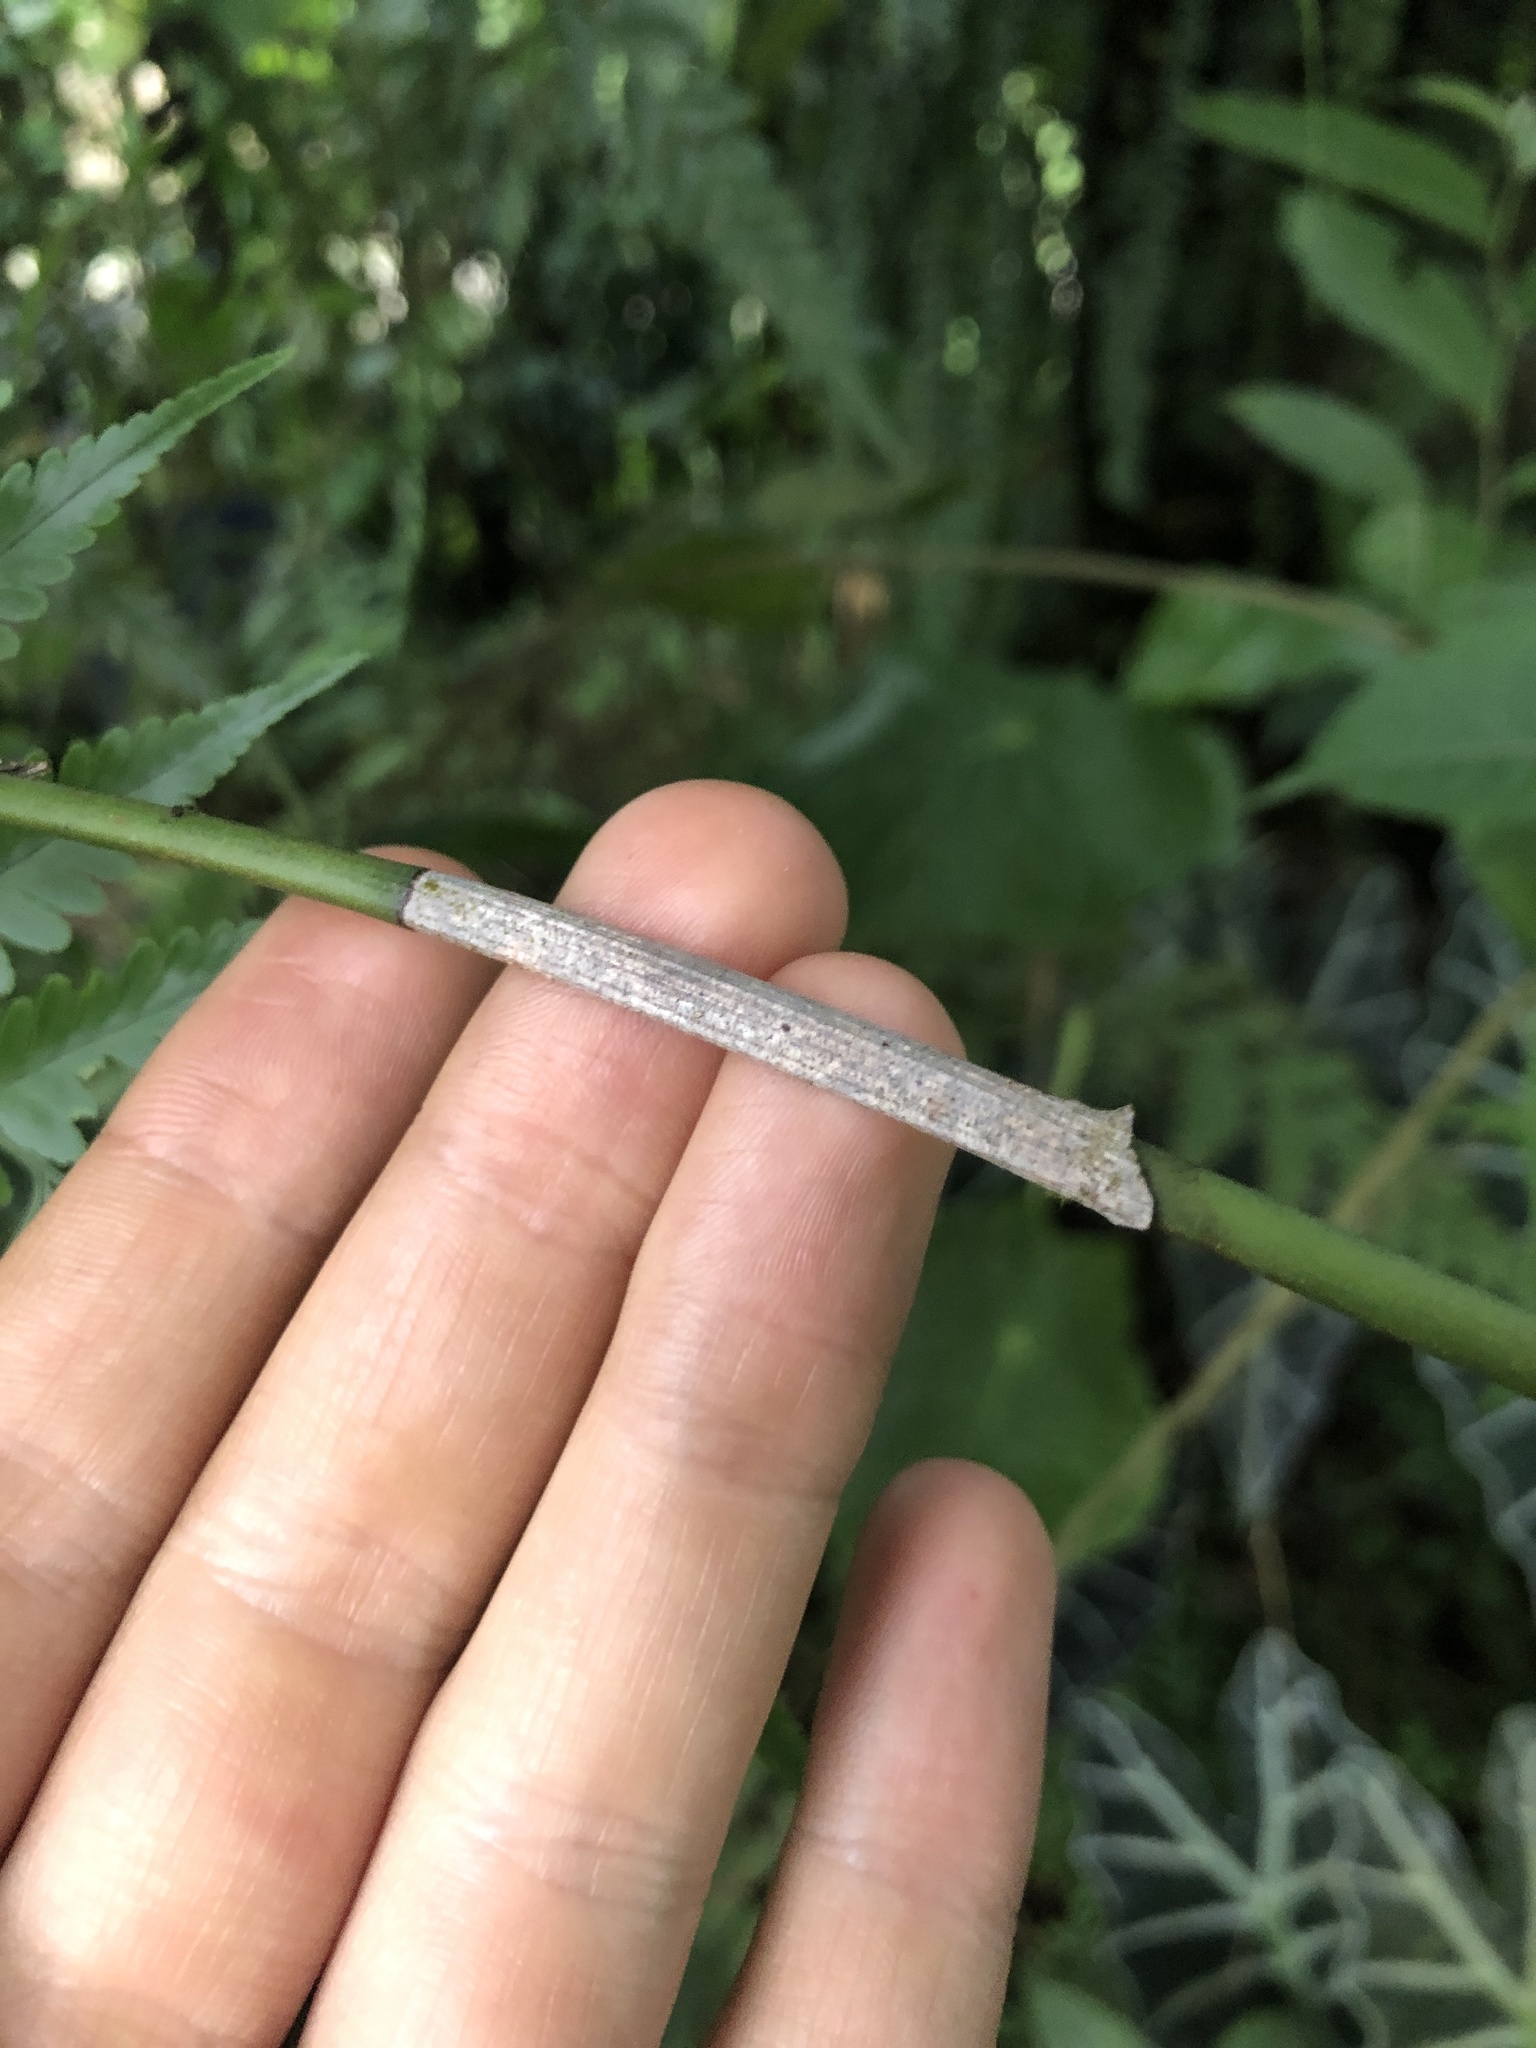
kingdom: Plantae
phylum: Tracheophyta
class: Liliopsida
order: Asparagales
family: Orchidaceae
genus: Sobralia
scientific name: Sobralia macrophylla
